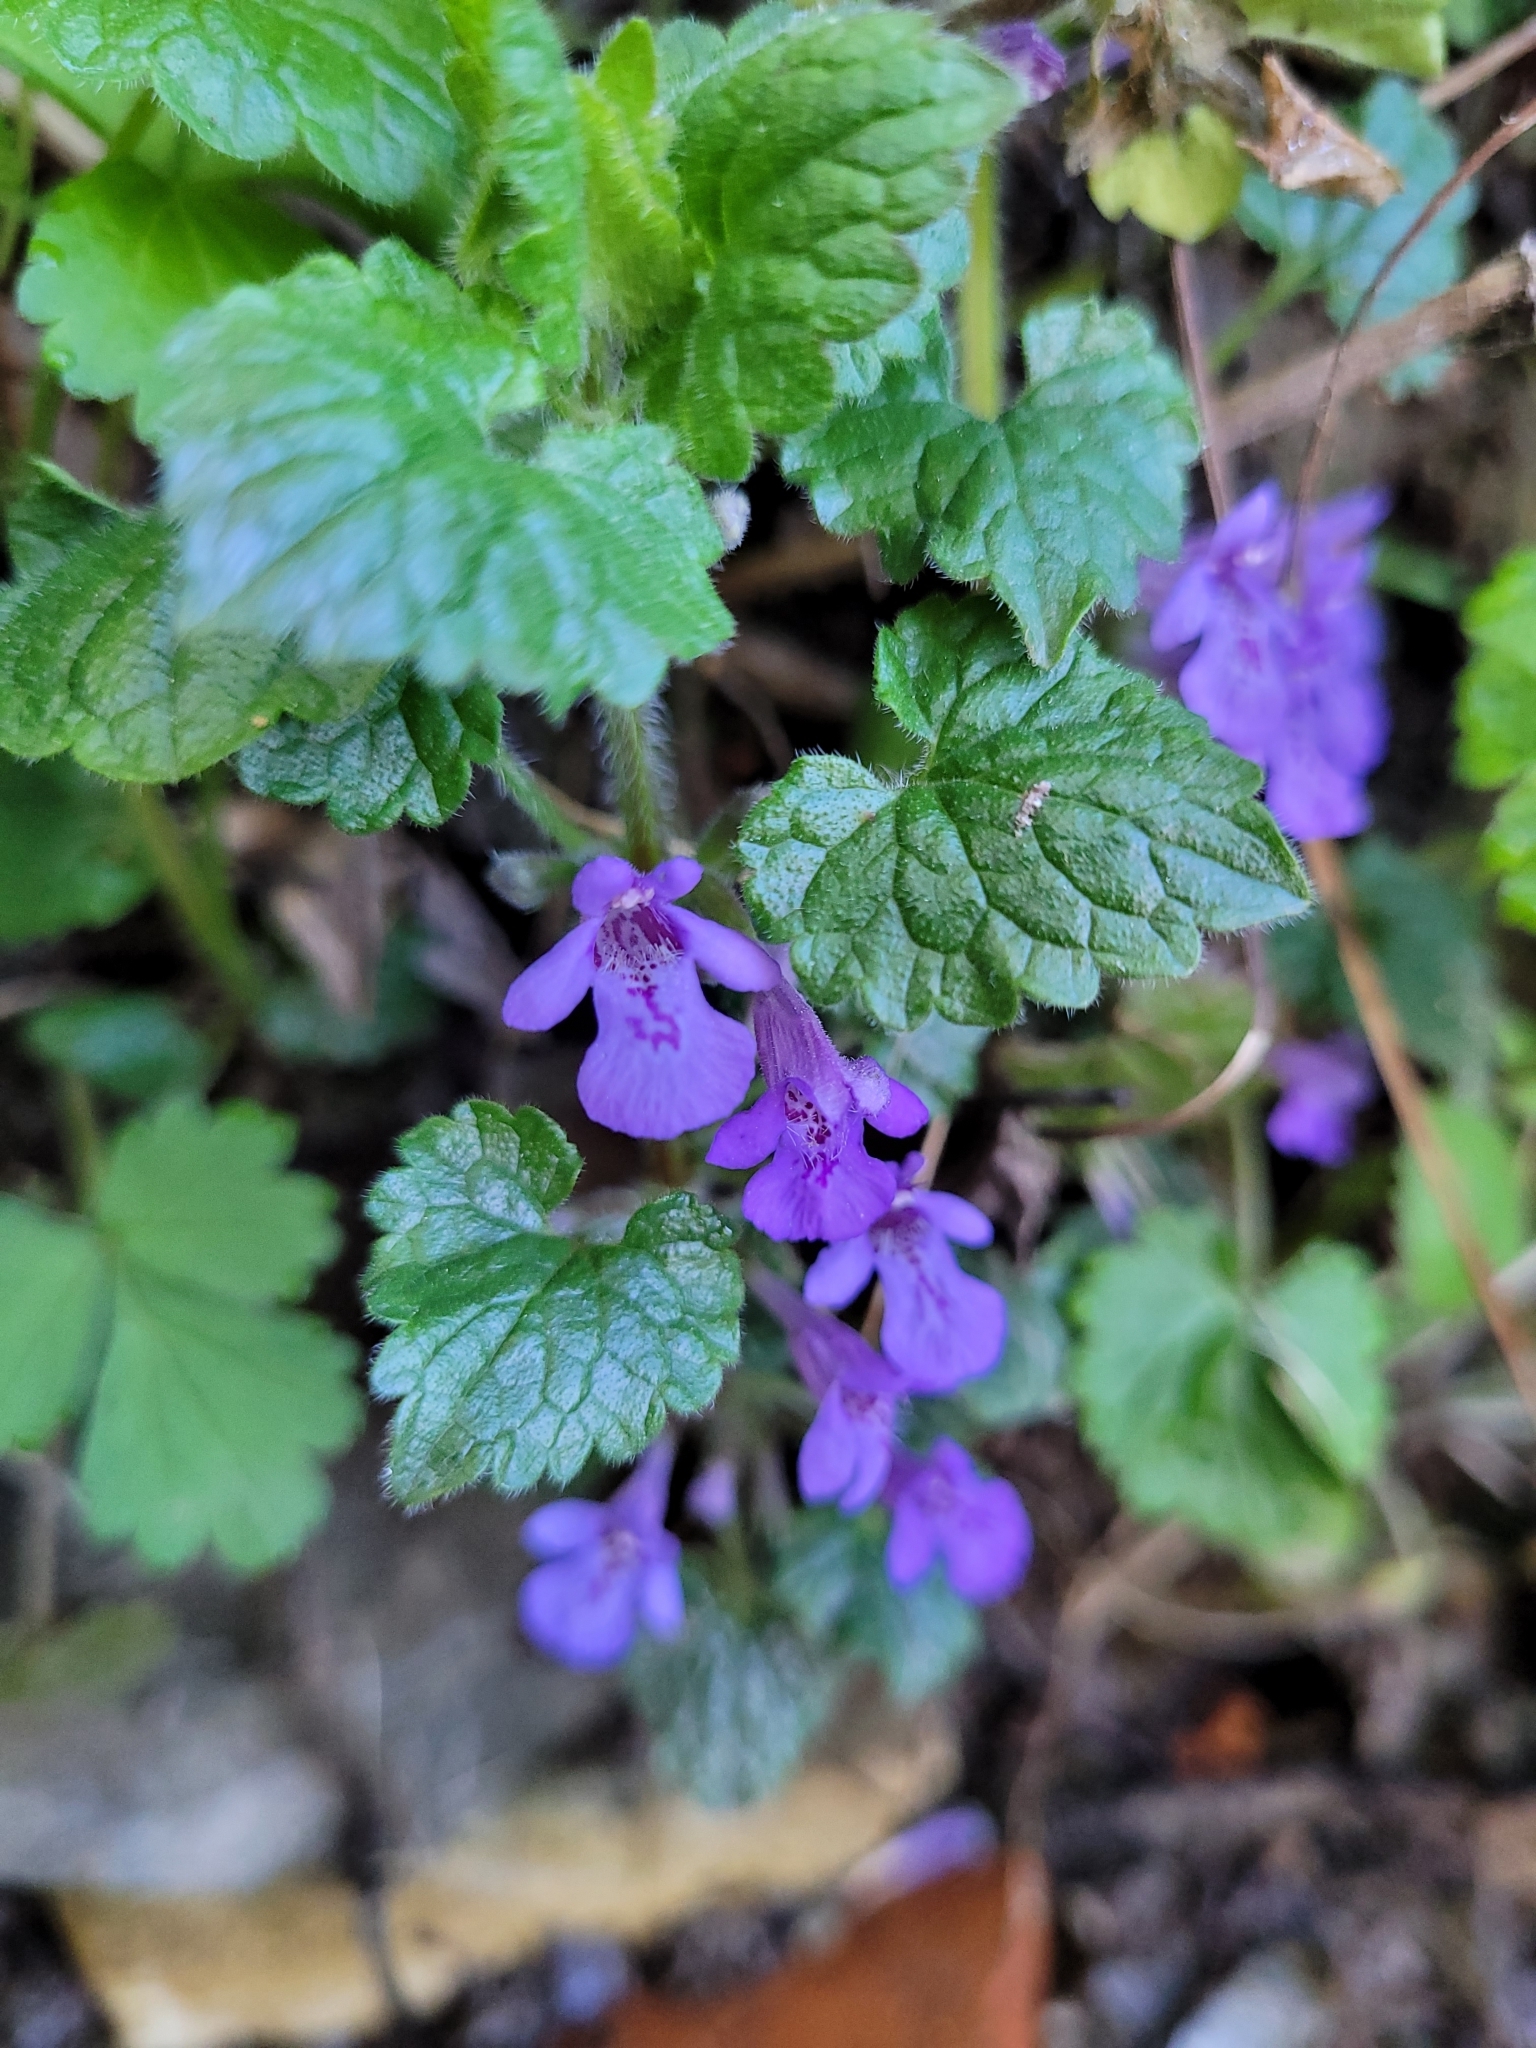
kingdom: Plantae
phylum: Tracheophyta
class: Magnoliopsida
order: Lamiales
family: Lamiaceae
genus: Glechoma
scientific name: Glechoma hederacea
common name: Ground ivy
